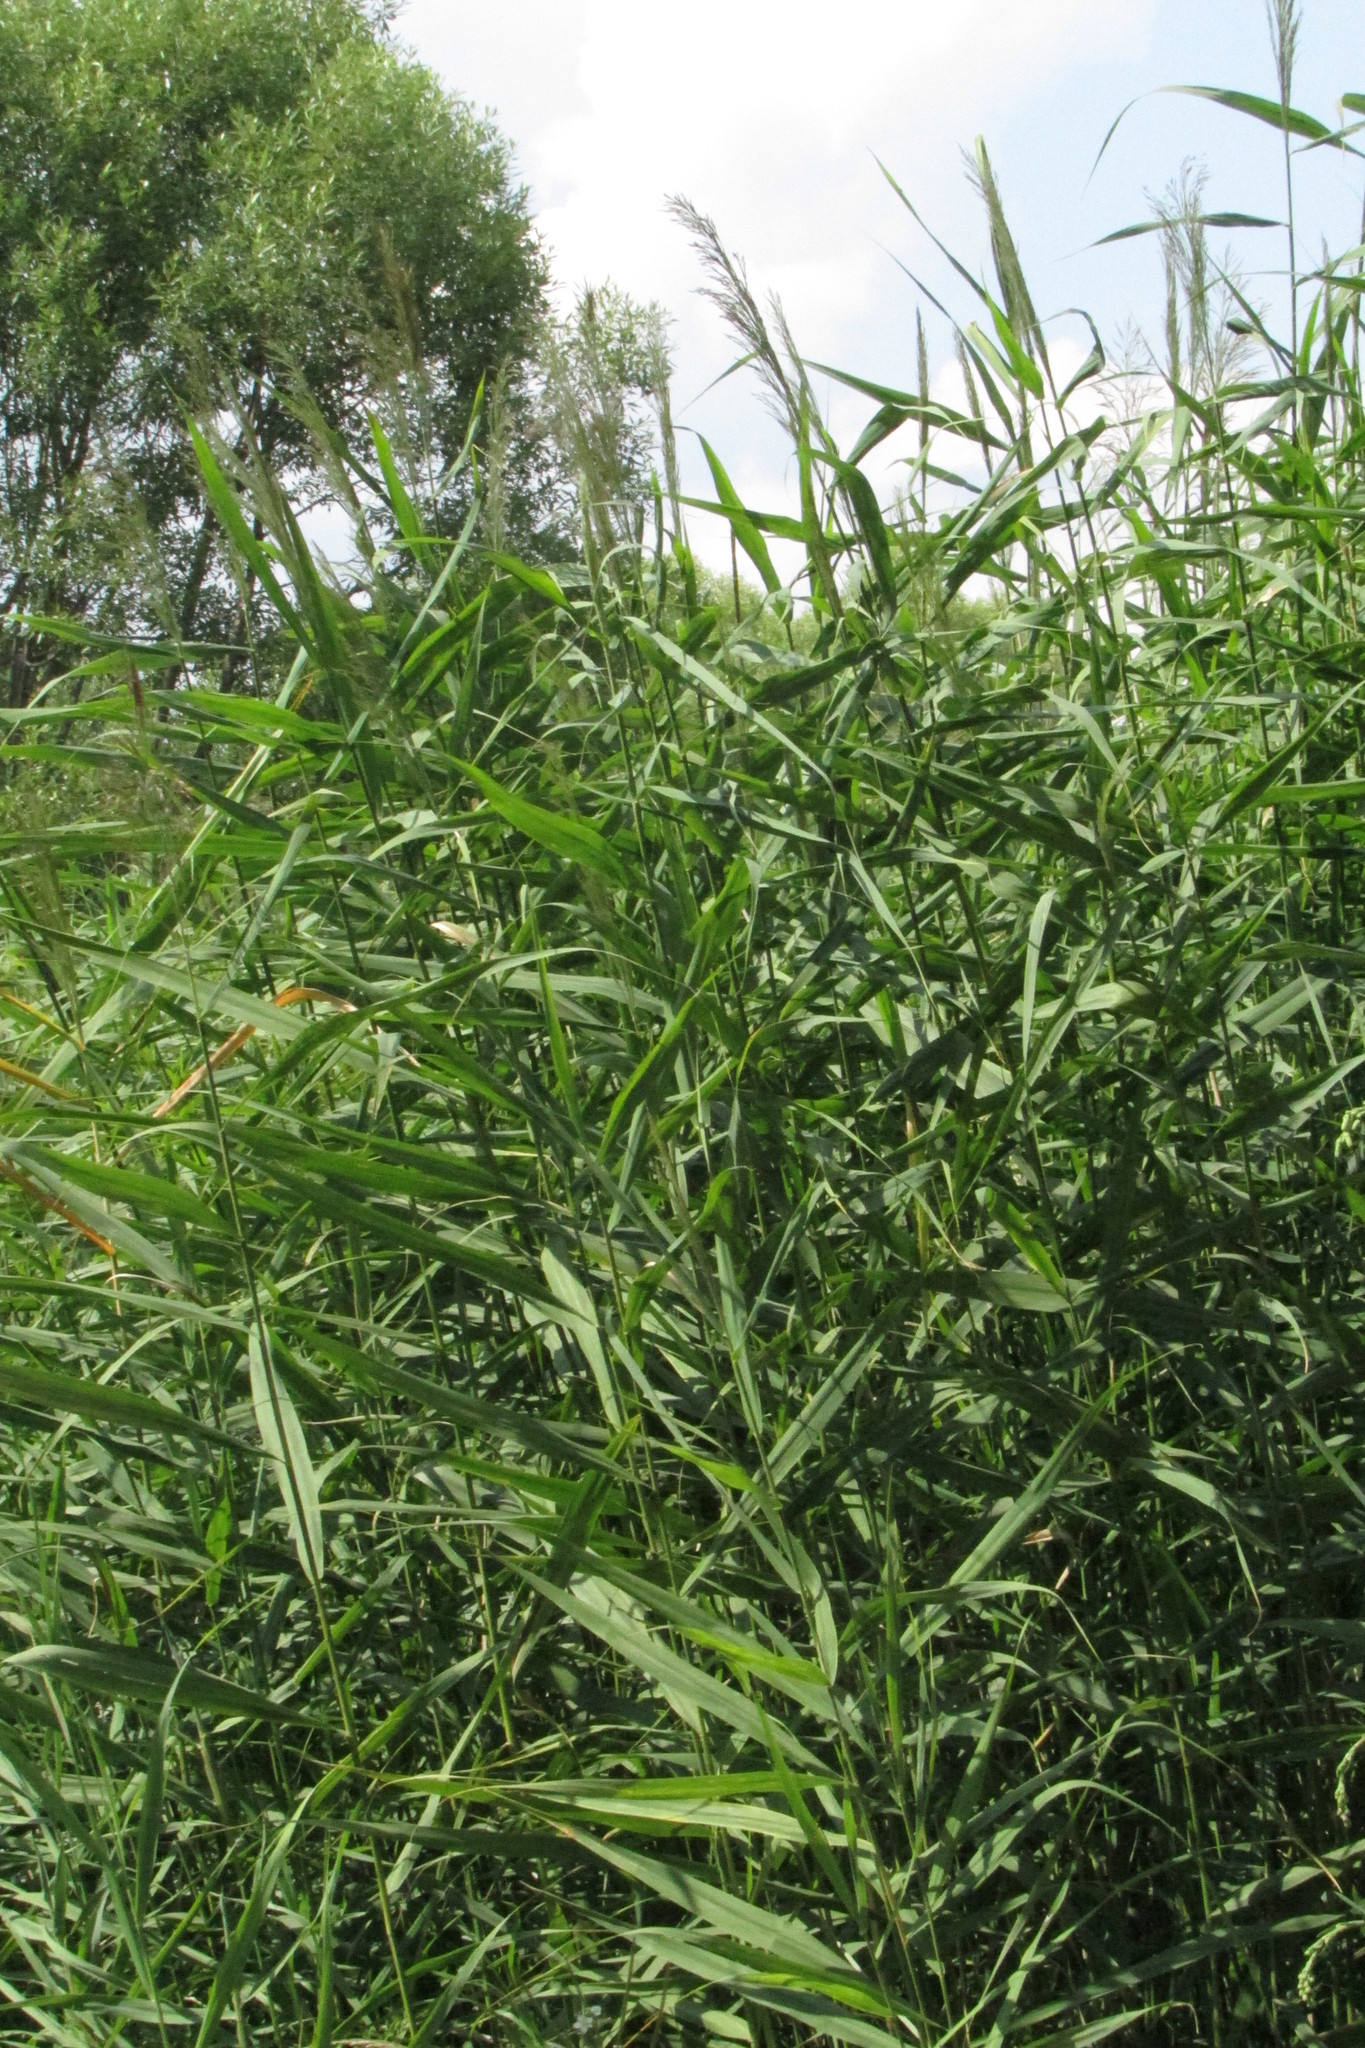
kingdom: Plantae
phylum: Tracheophyta
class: Liliopsida
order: Poales
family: Poaceae
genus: Phragmites
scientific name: Phragmites australis
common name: Common reed
